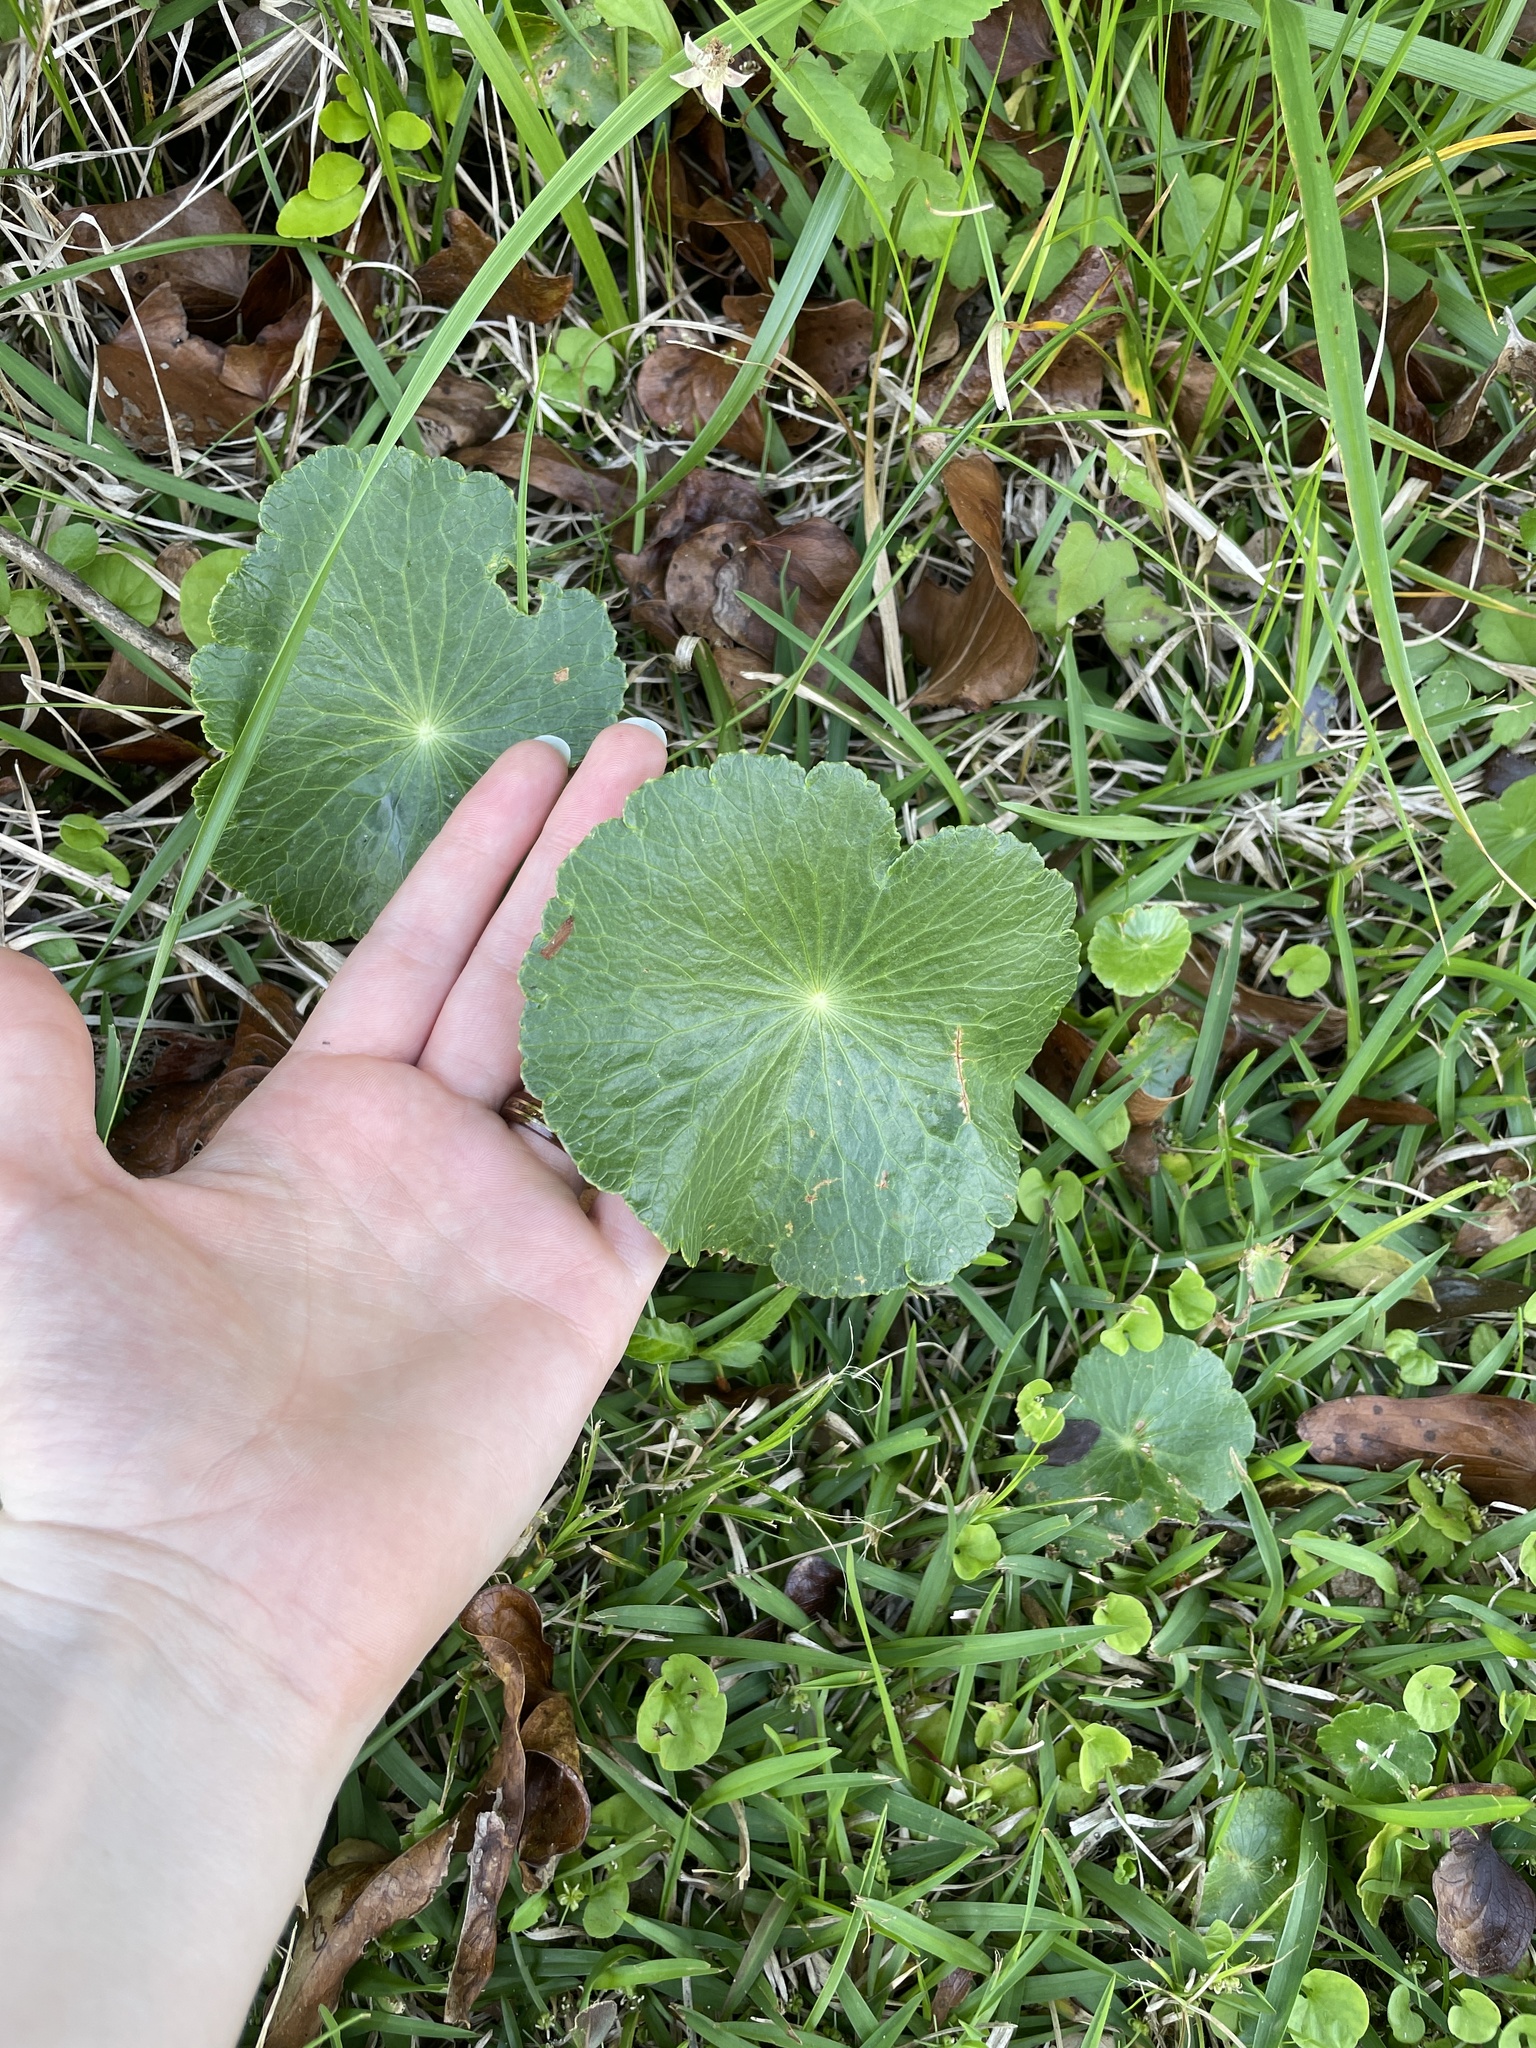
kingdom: Plantae
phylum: Tracheophyta
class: Magnoliopsida
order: Apiales
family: Araliaceae
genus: Hydrocotyle
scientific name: Hydrocotyle bonariensis
